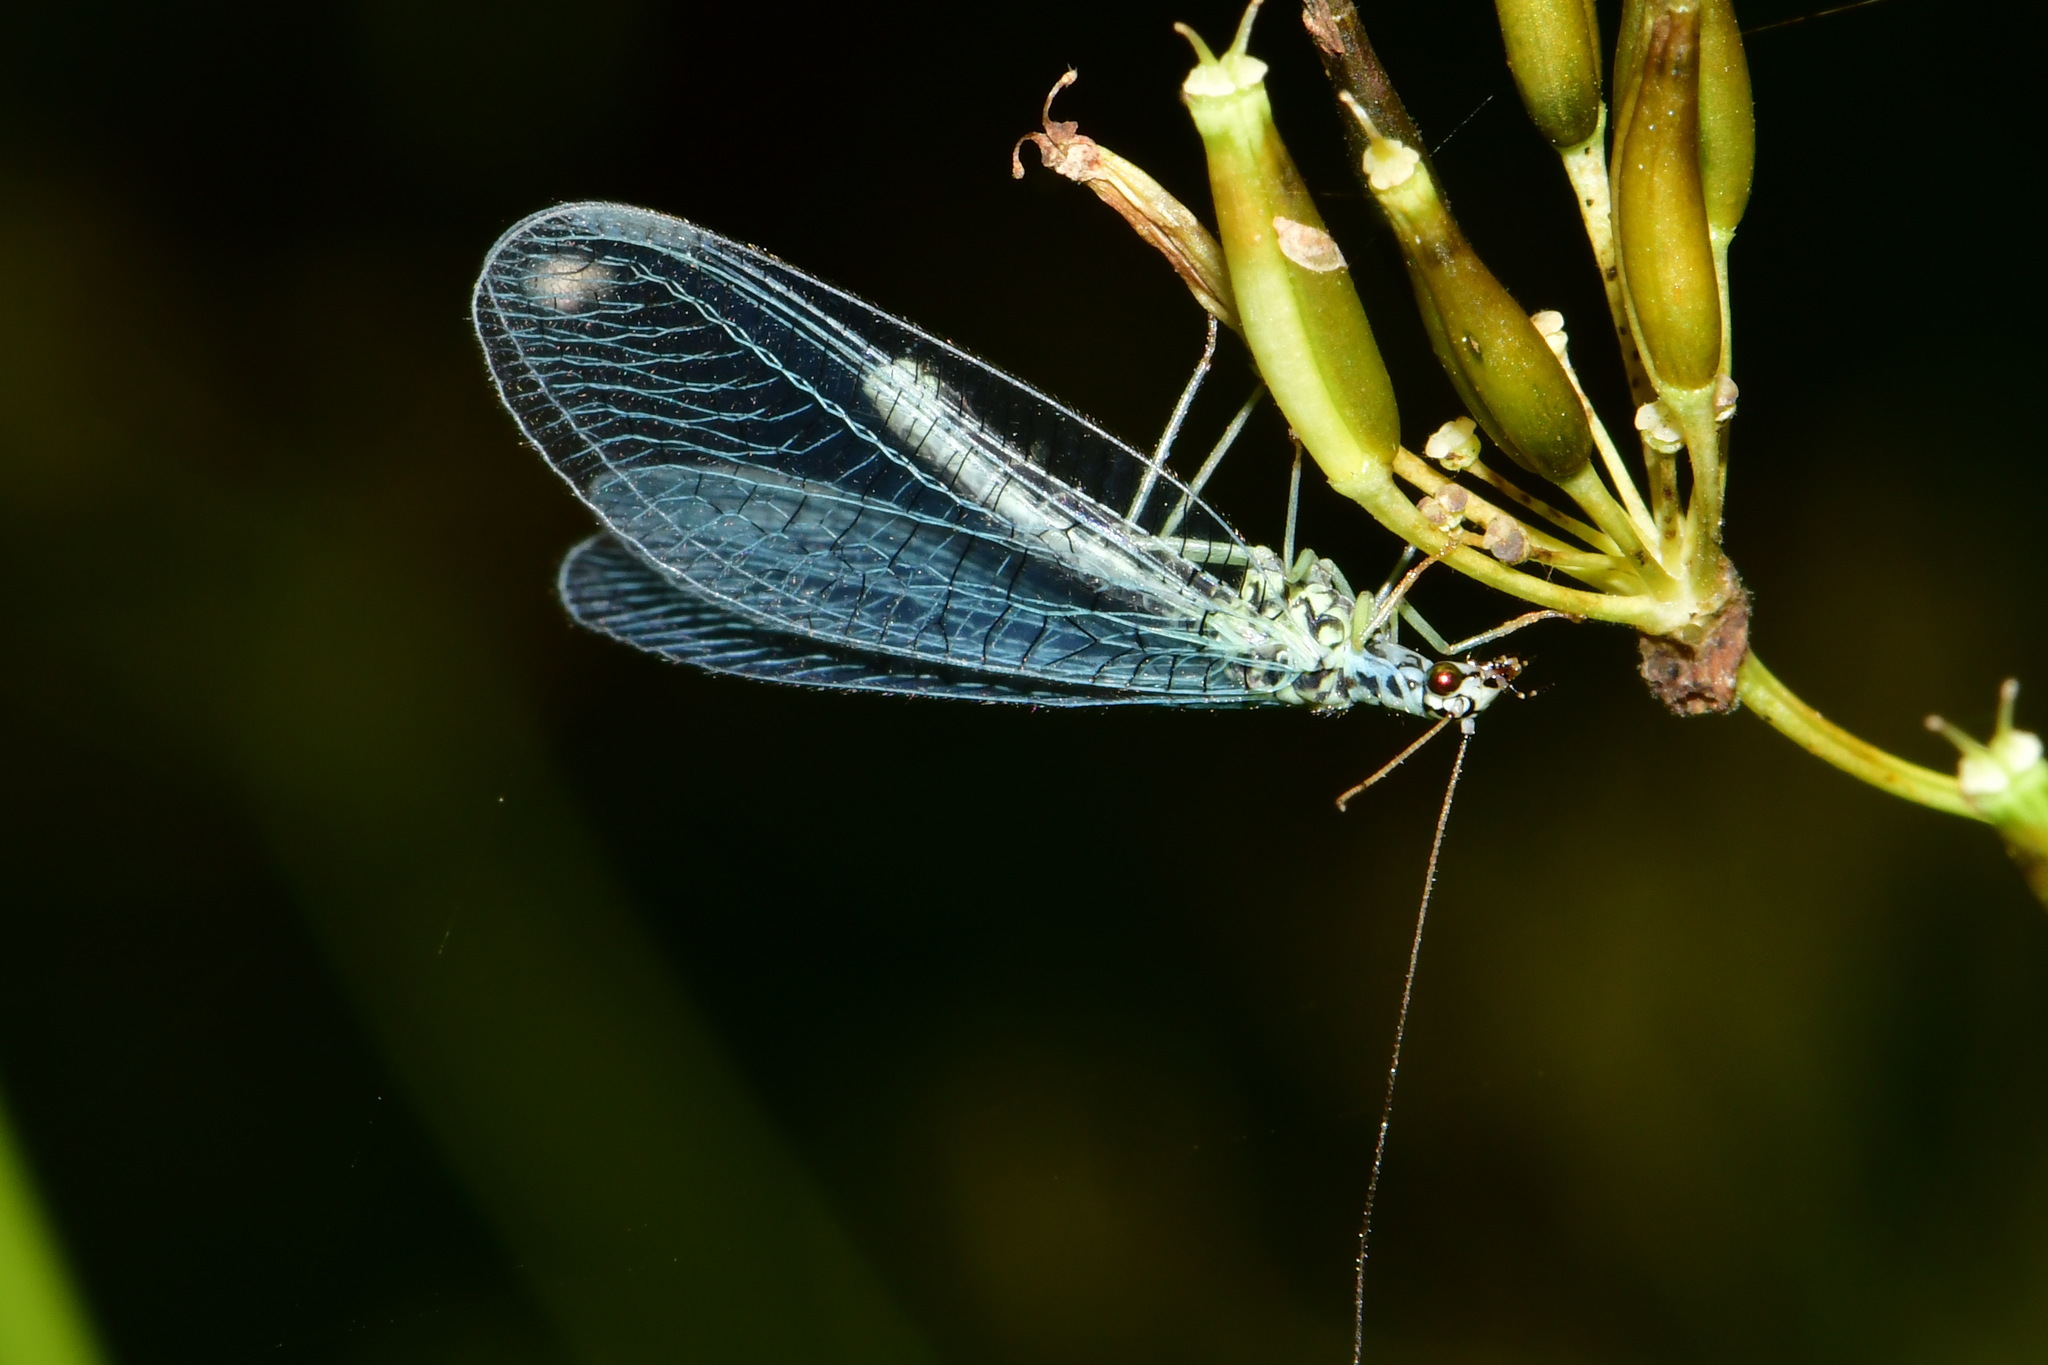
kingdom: Animalia
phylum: Arthropoda
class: Insecta
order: Neuroptera
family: Chrysopidae
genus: Chrysopa
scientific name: Chrysopa perla
